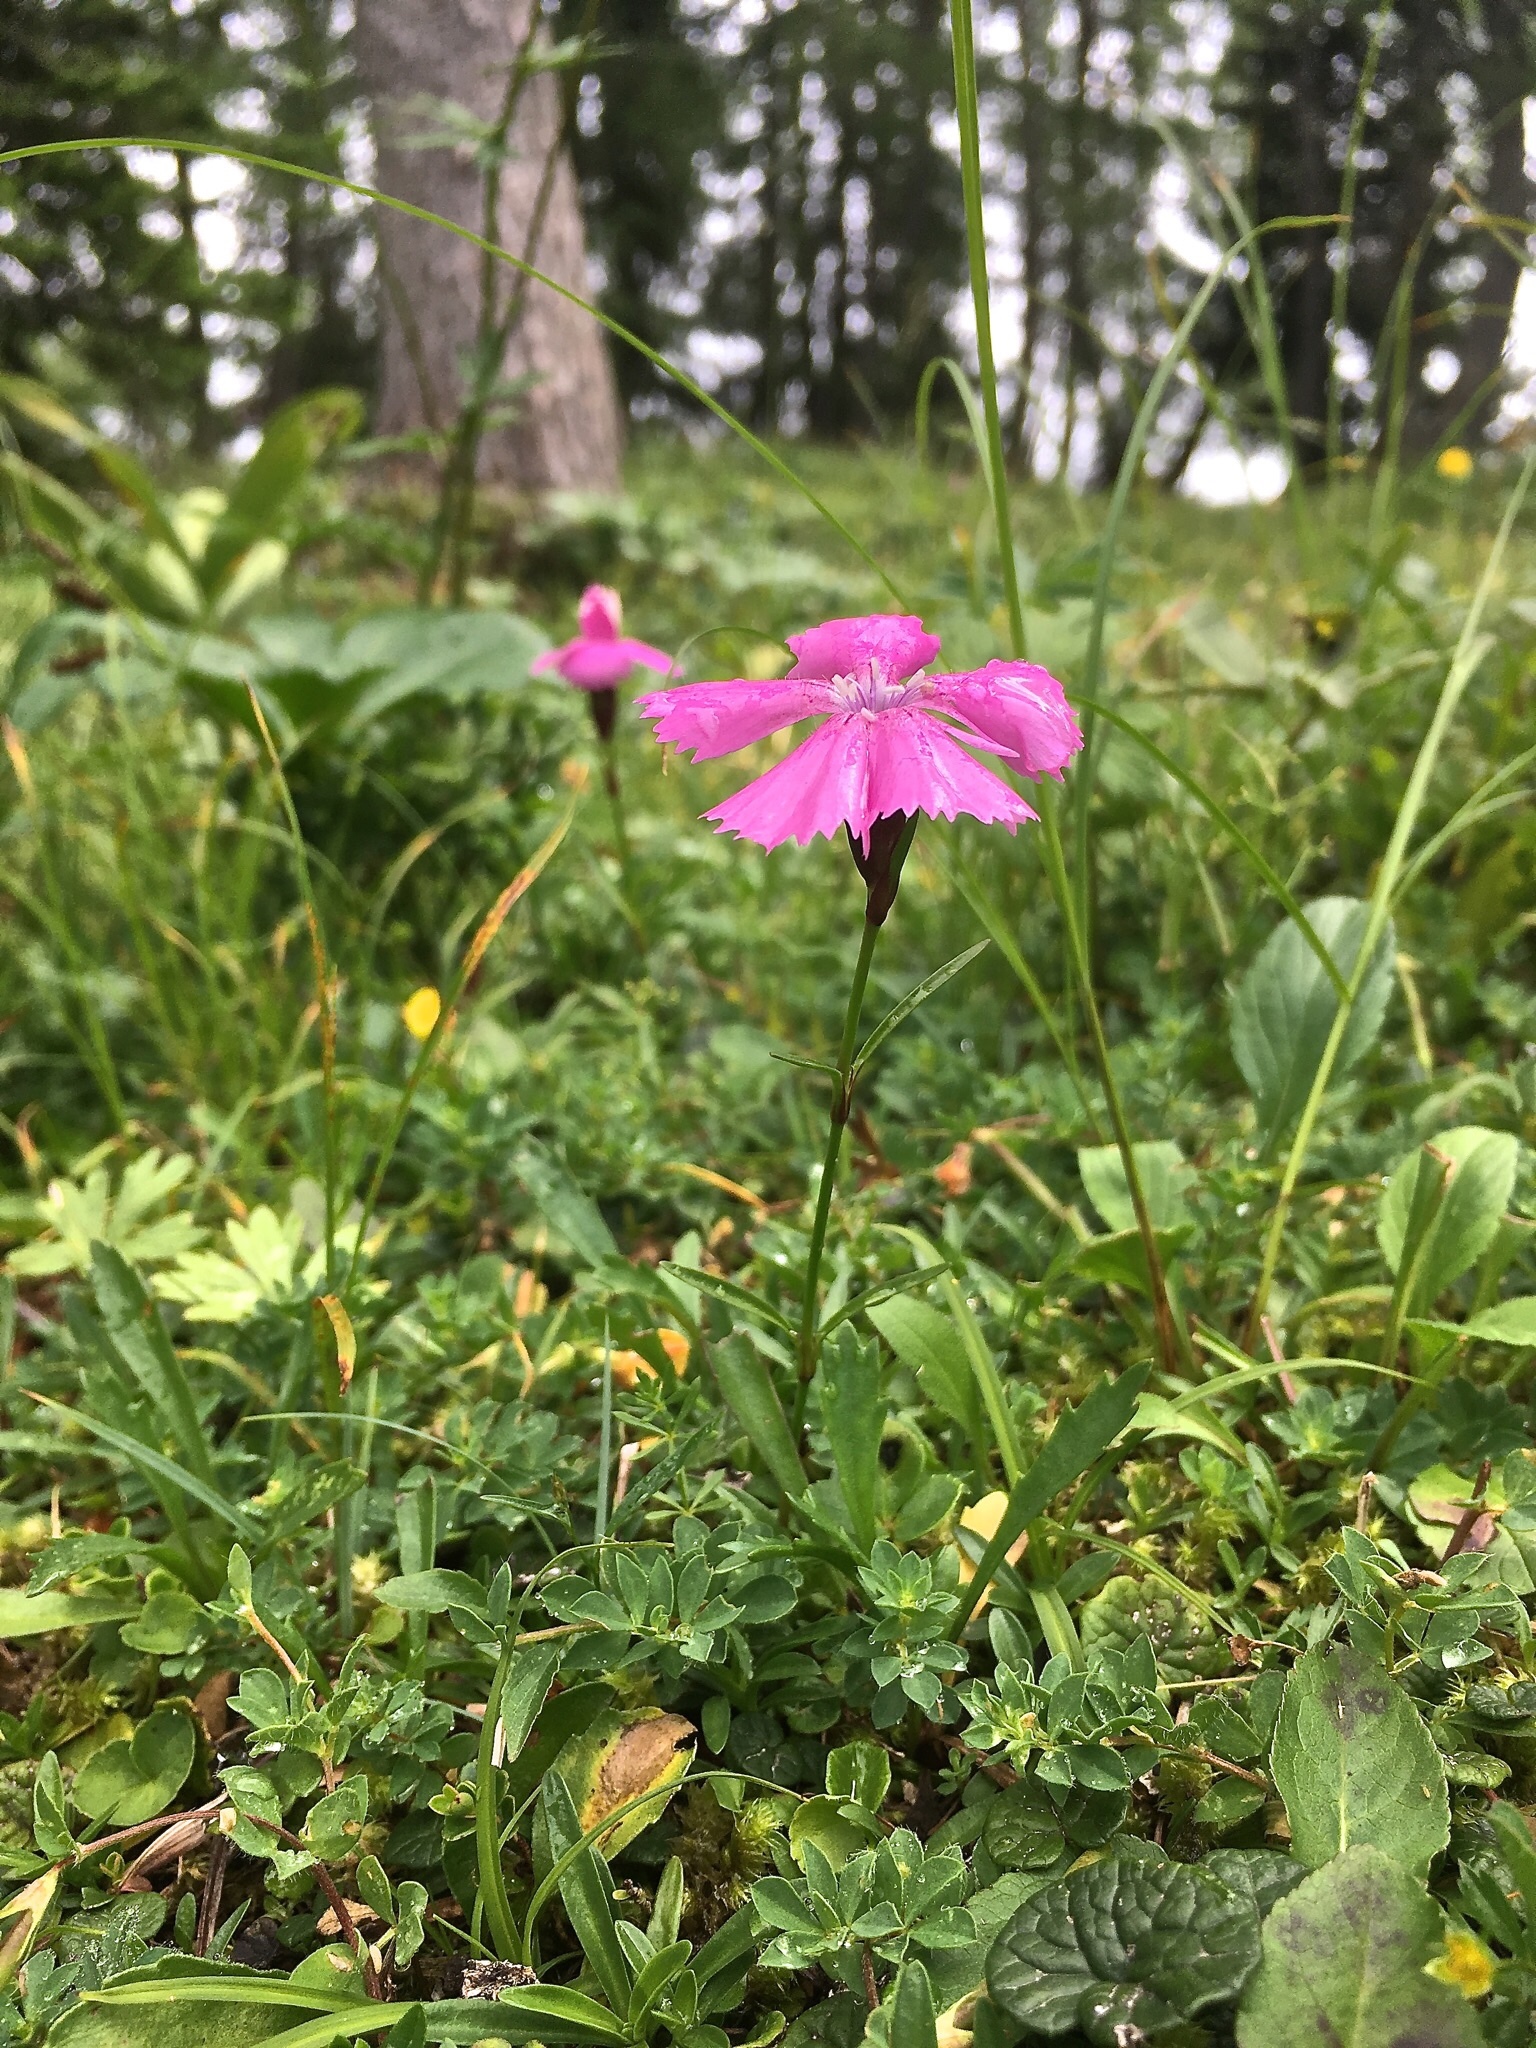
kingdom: Plantae
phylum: Tracheophyta
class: Magnoliopsida
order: Caryophyllales
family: Caryophyllaceae
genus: Dianthus
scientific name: Dianthus alpinus
